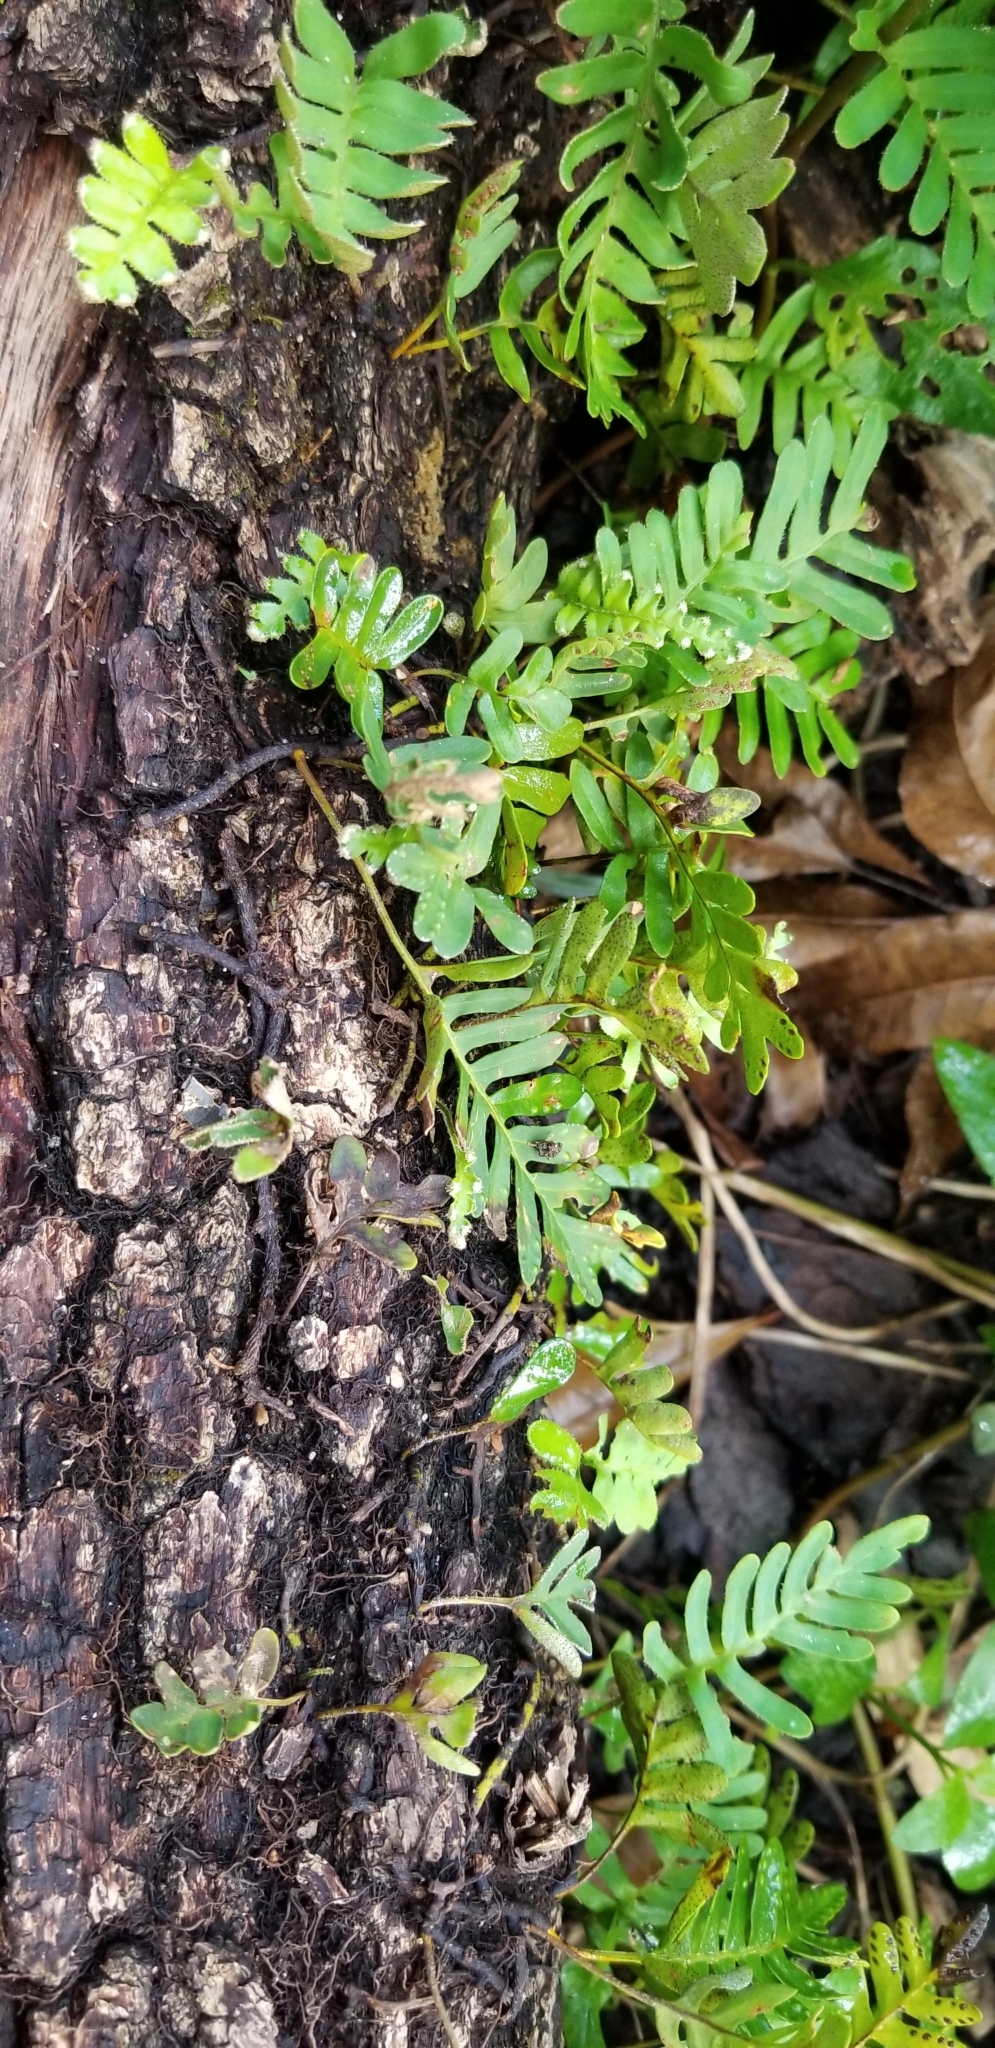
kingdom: Plantae
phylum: Tracheophyta
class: Polypodiopsida
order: Polypodiales
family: Polypodiaceae
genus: Pleopeltis
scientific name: Pleopeltis michauxiana
